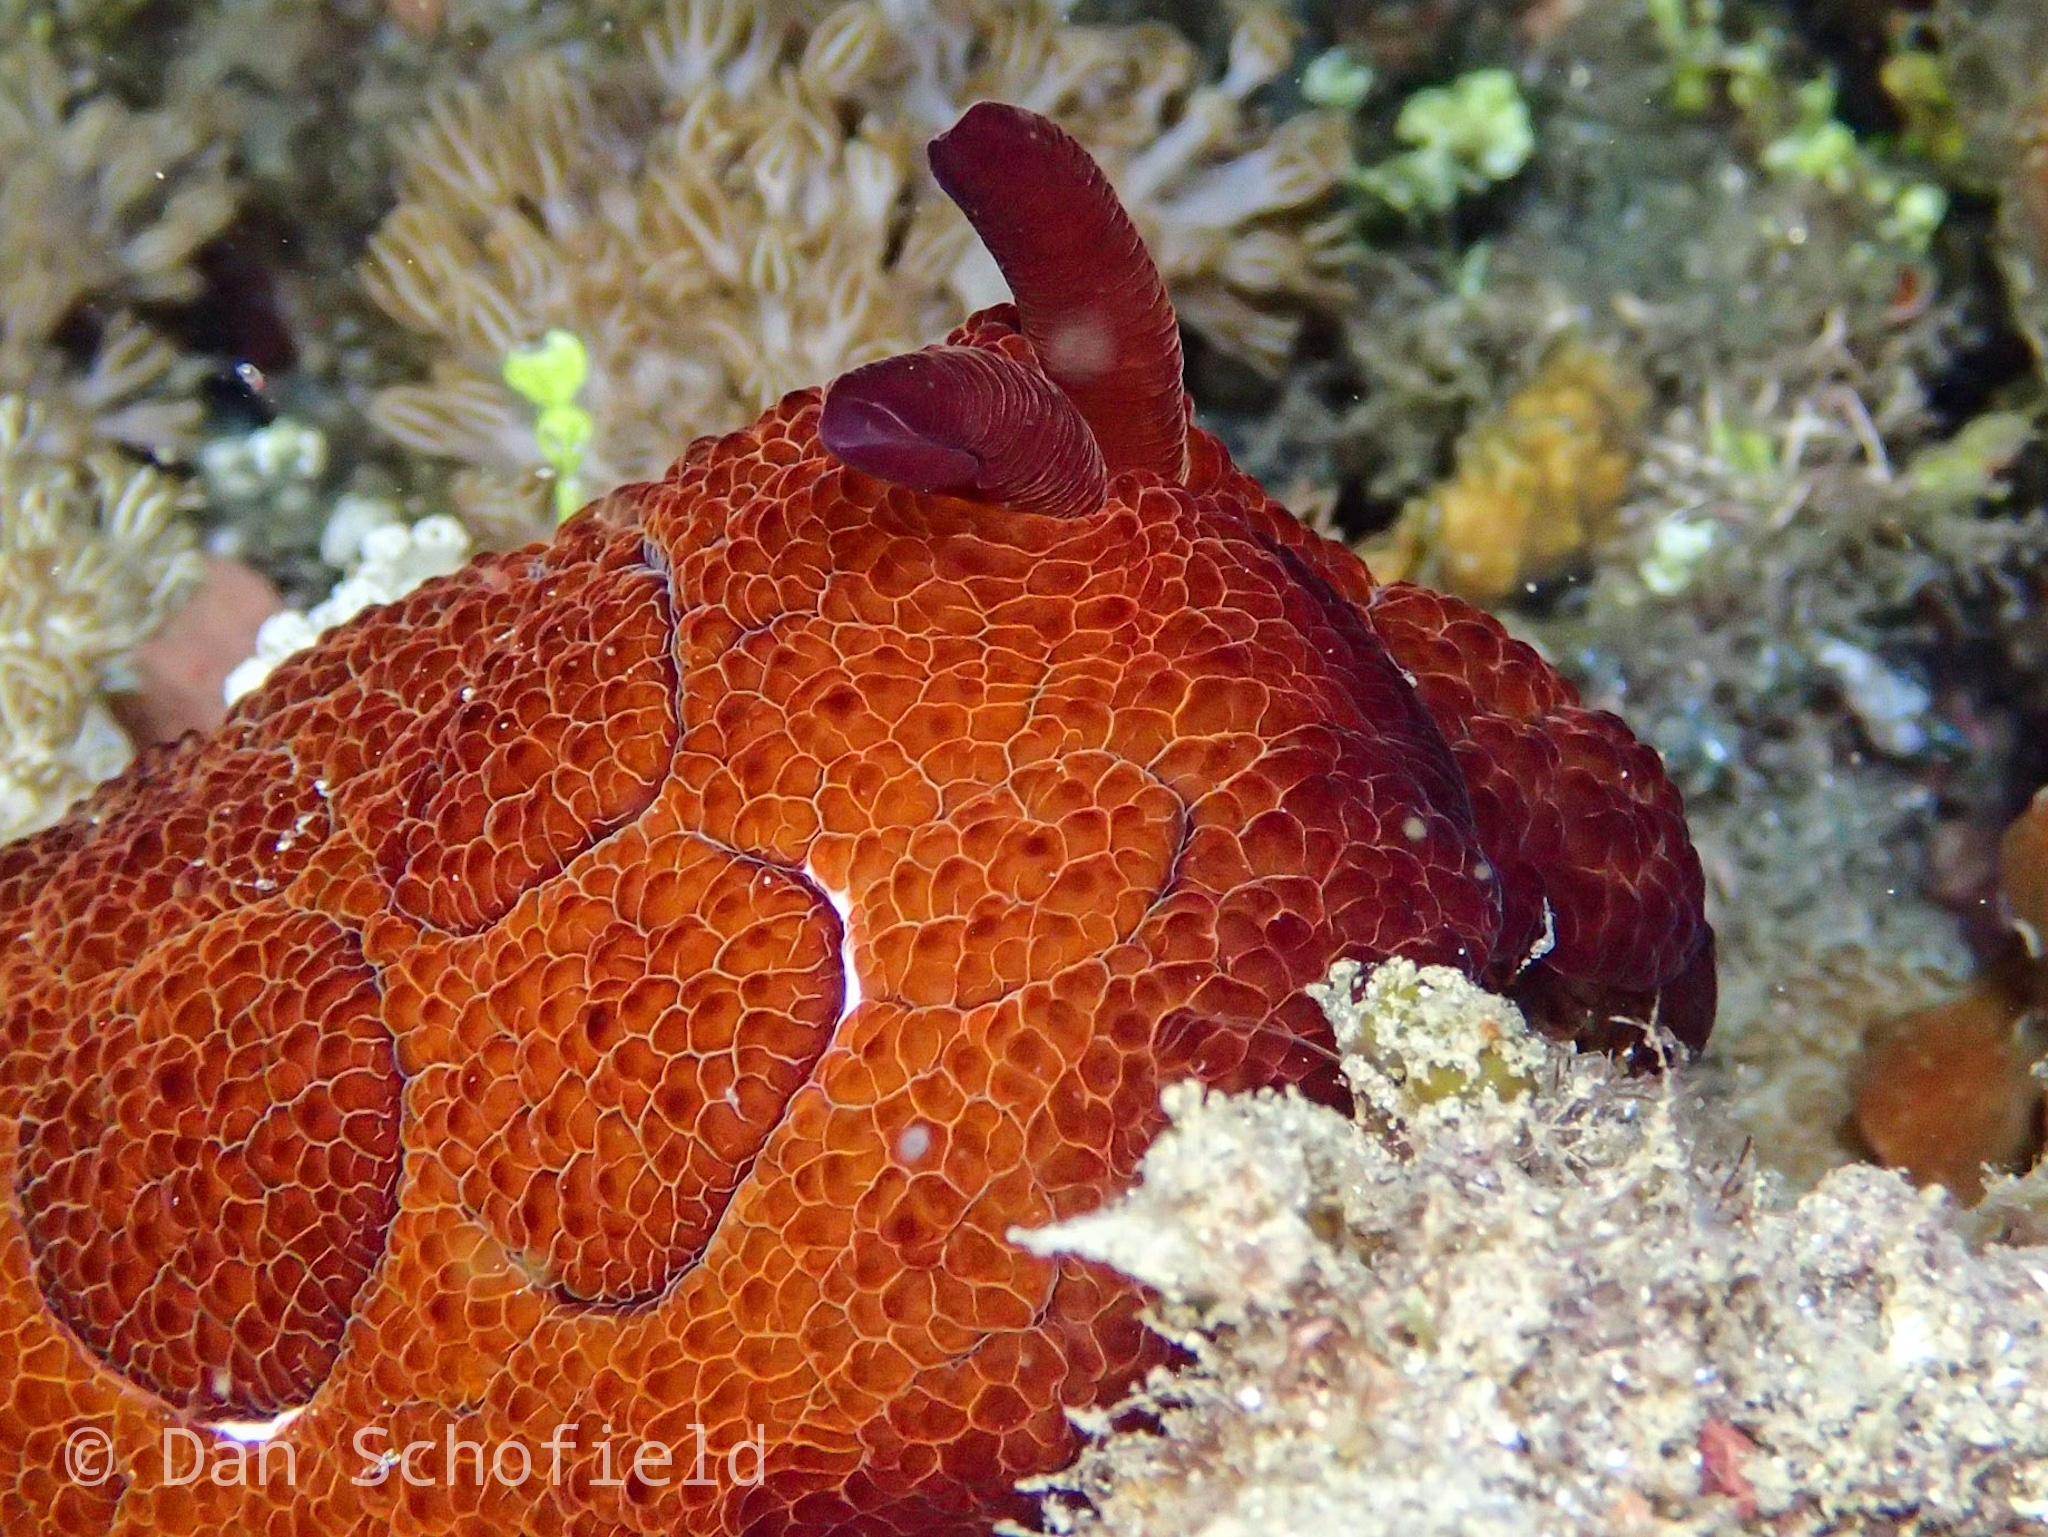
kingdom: Animalia
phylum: Mollusca
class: Gastropoda
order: Pleurobranchida
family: Pleurobranchidae
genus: Pleurobranchus
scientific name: Pleurobranchus forskalii
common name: Forskal's side-gilled sea slug
